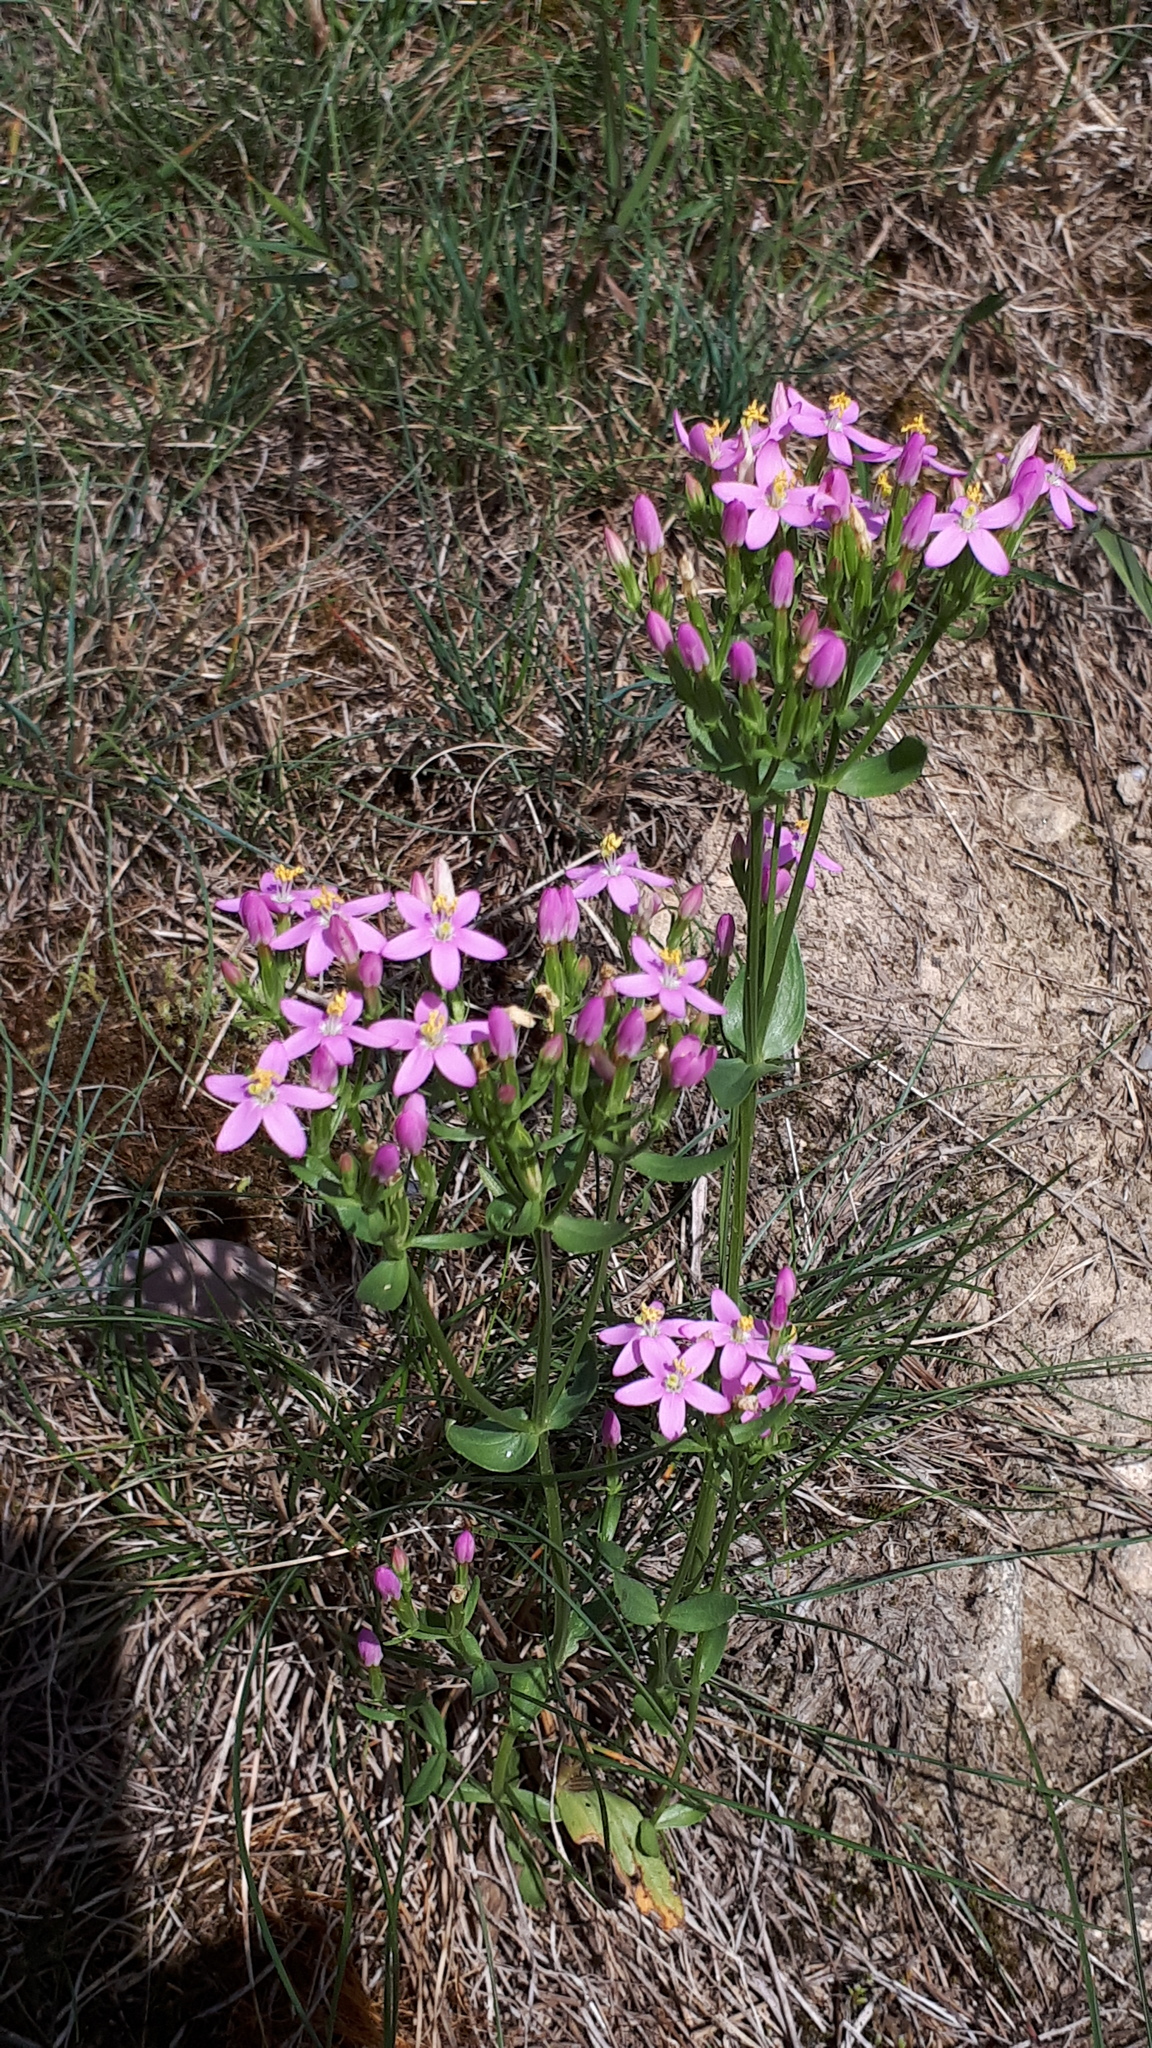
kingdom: Plantae
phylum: Tracheophyta
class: Magnoliopsida
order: Gentianales
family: Gentianaceae
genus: Centaurium
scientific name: Centaurium erythraea
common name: Common centaury
